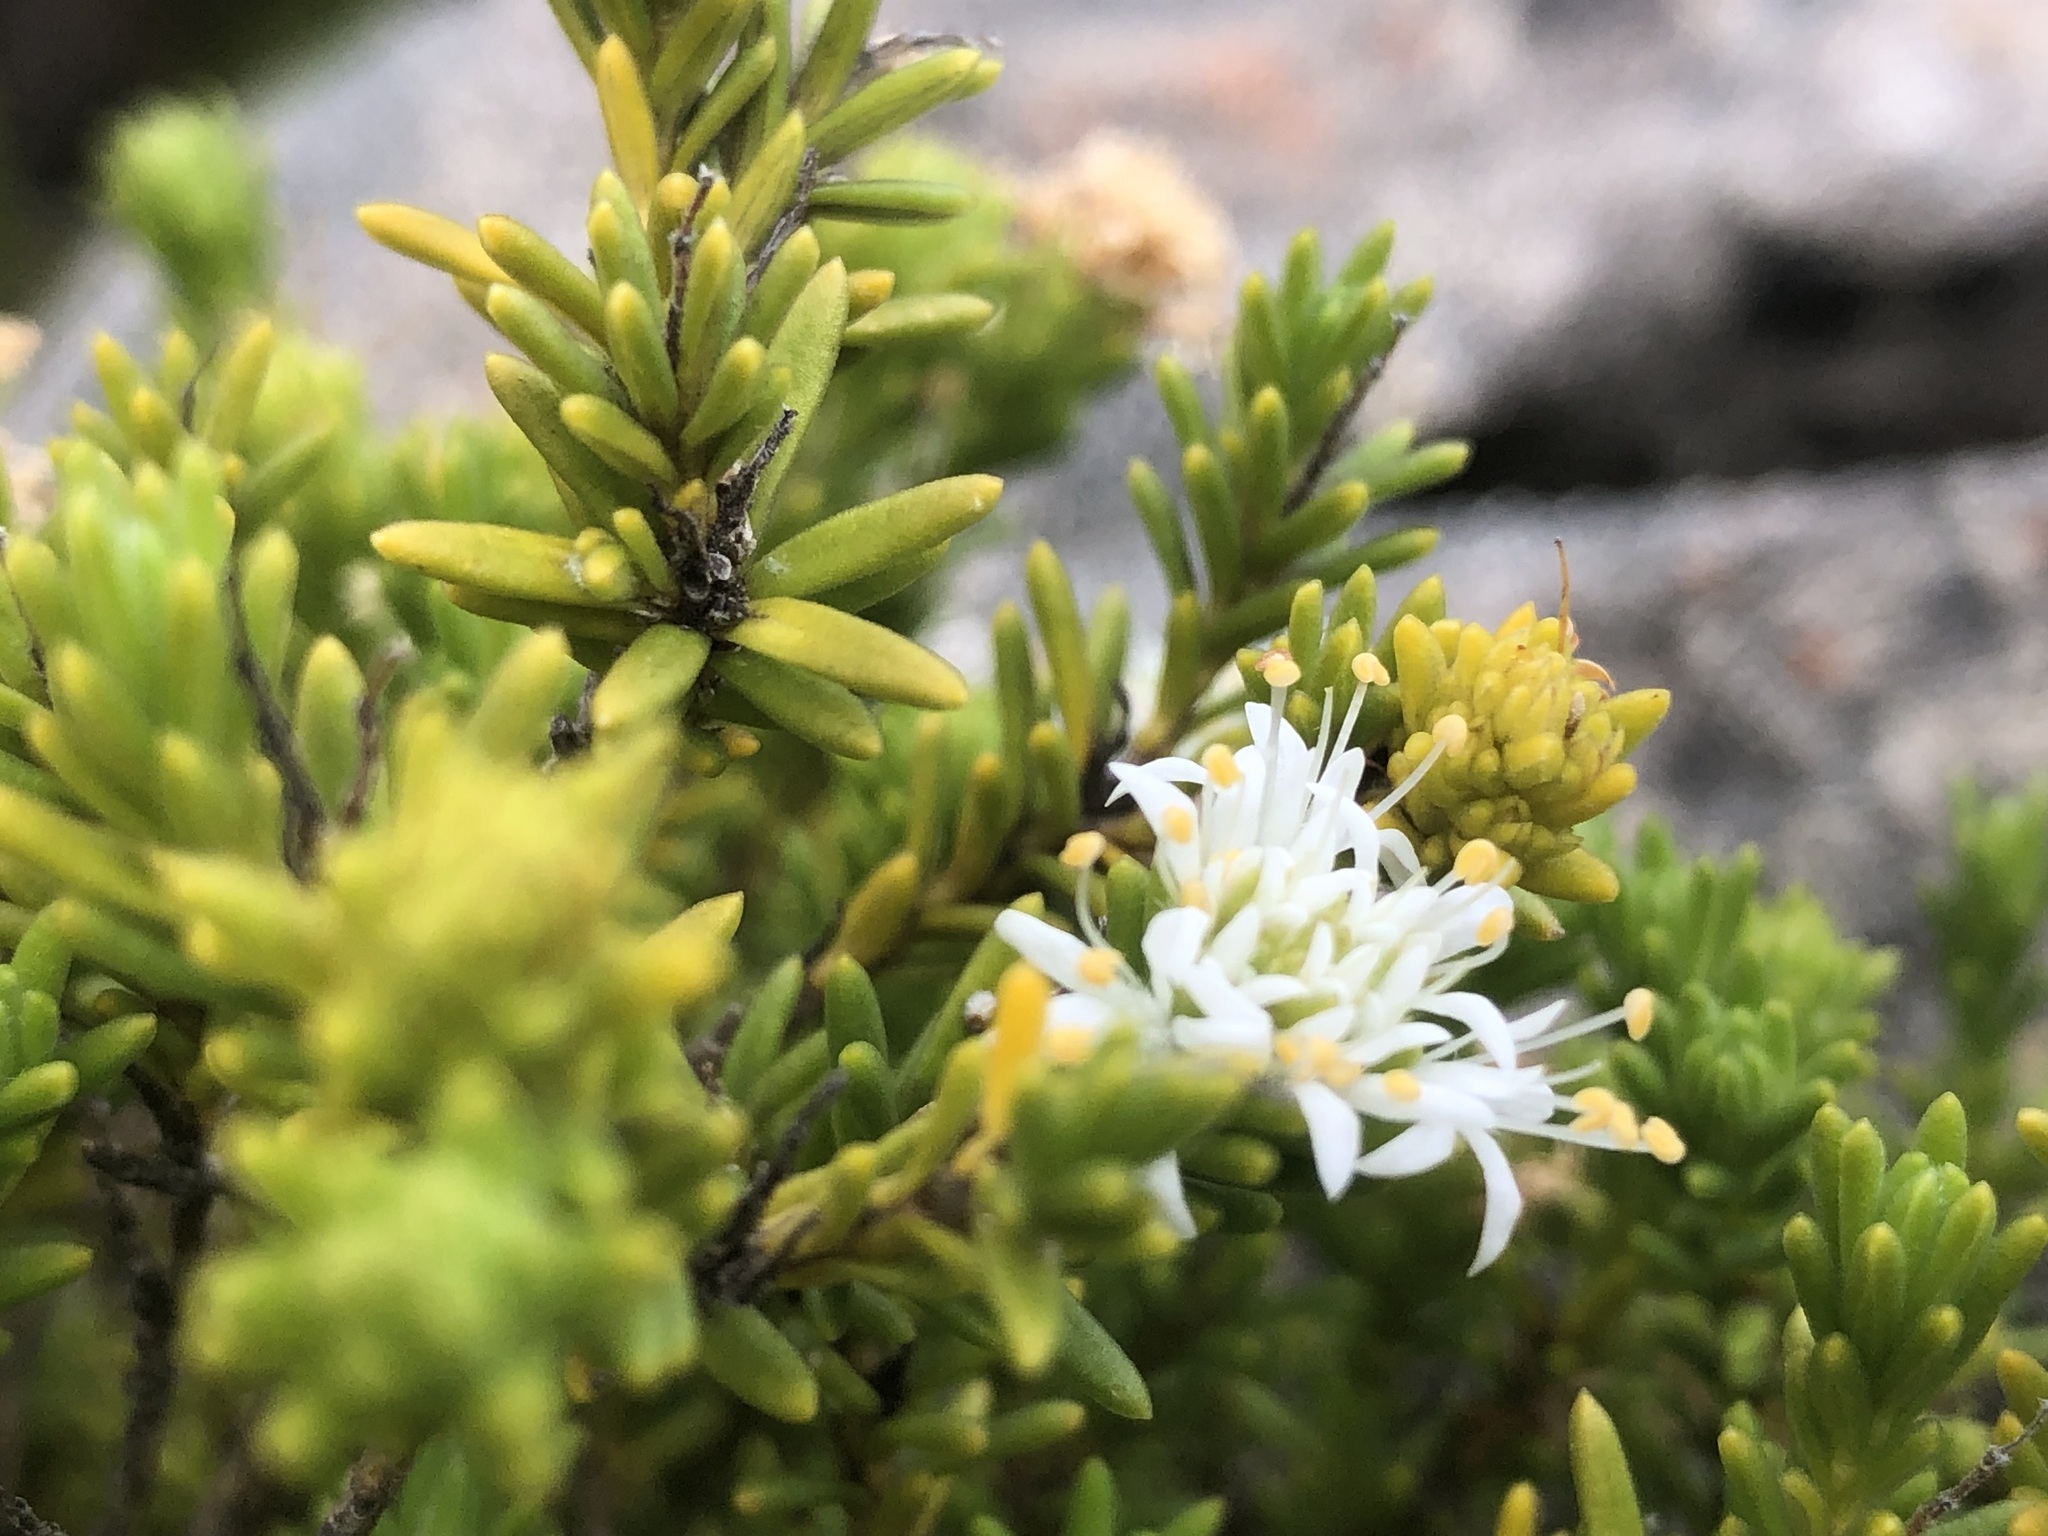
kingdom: Plantae
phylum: Tracheophyta
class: Magnoliopsida
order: Lamiales
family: Stilbaceae
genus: Stilbe
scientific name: Stilbe rupestris
